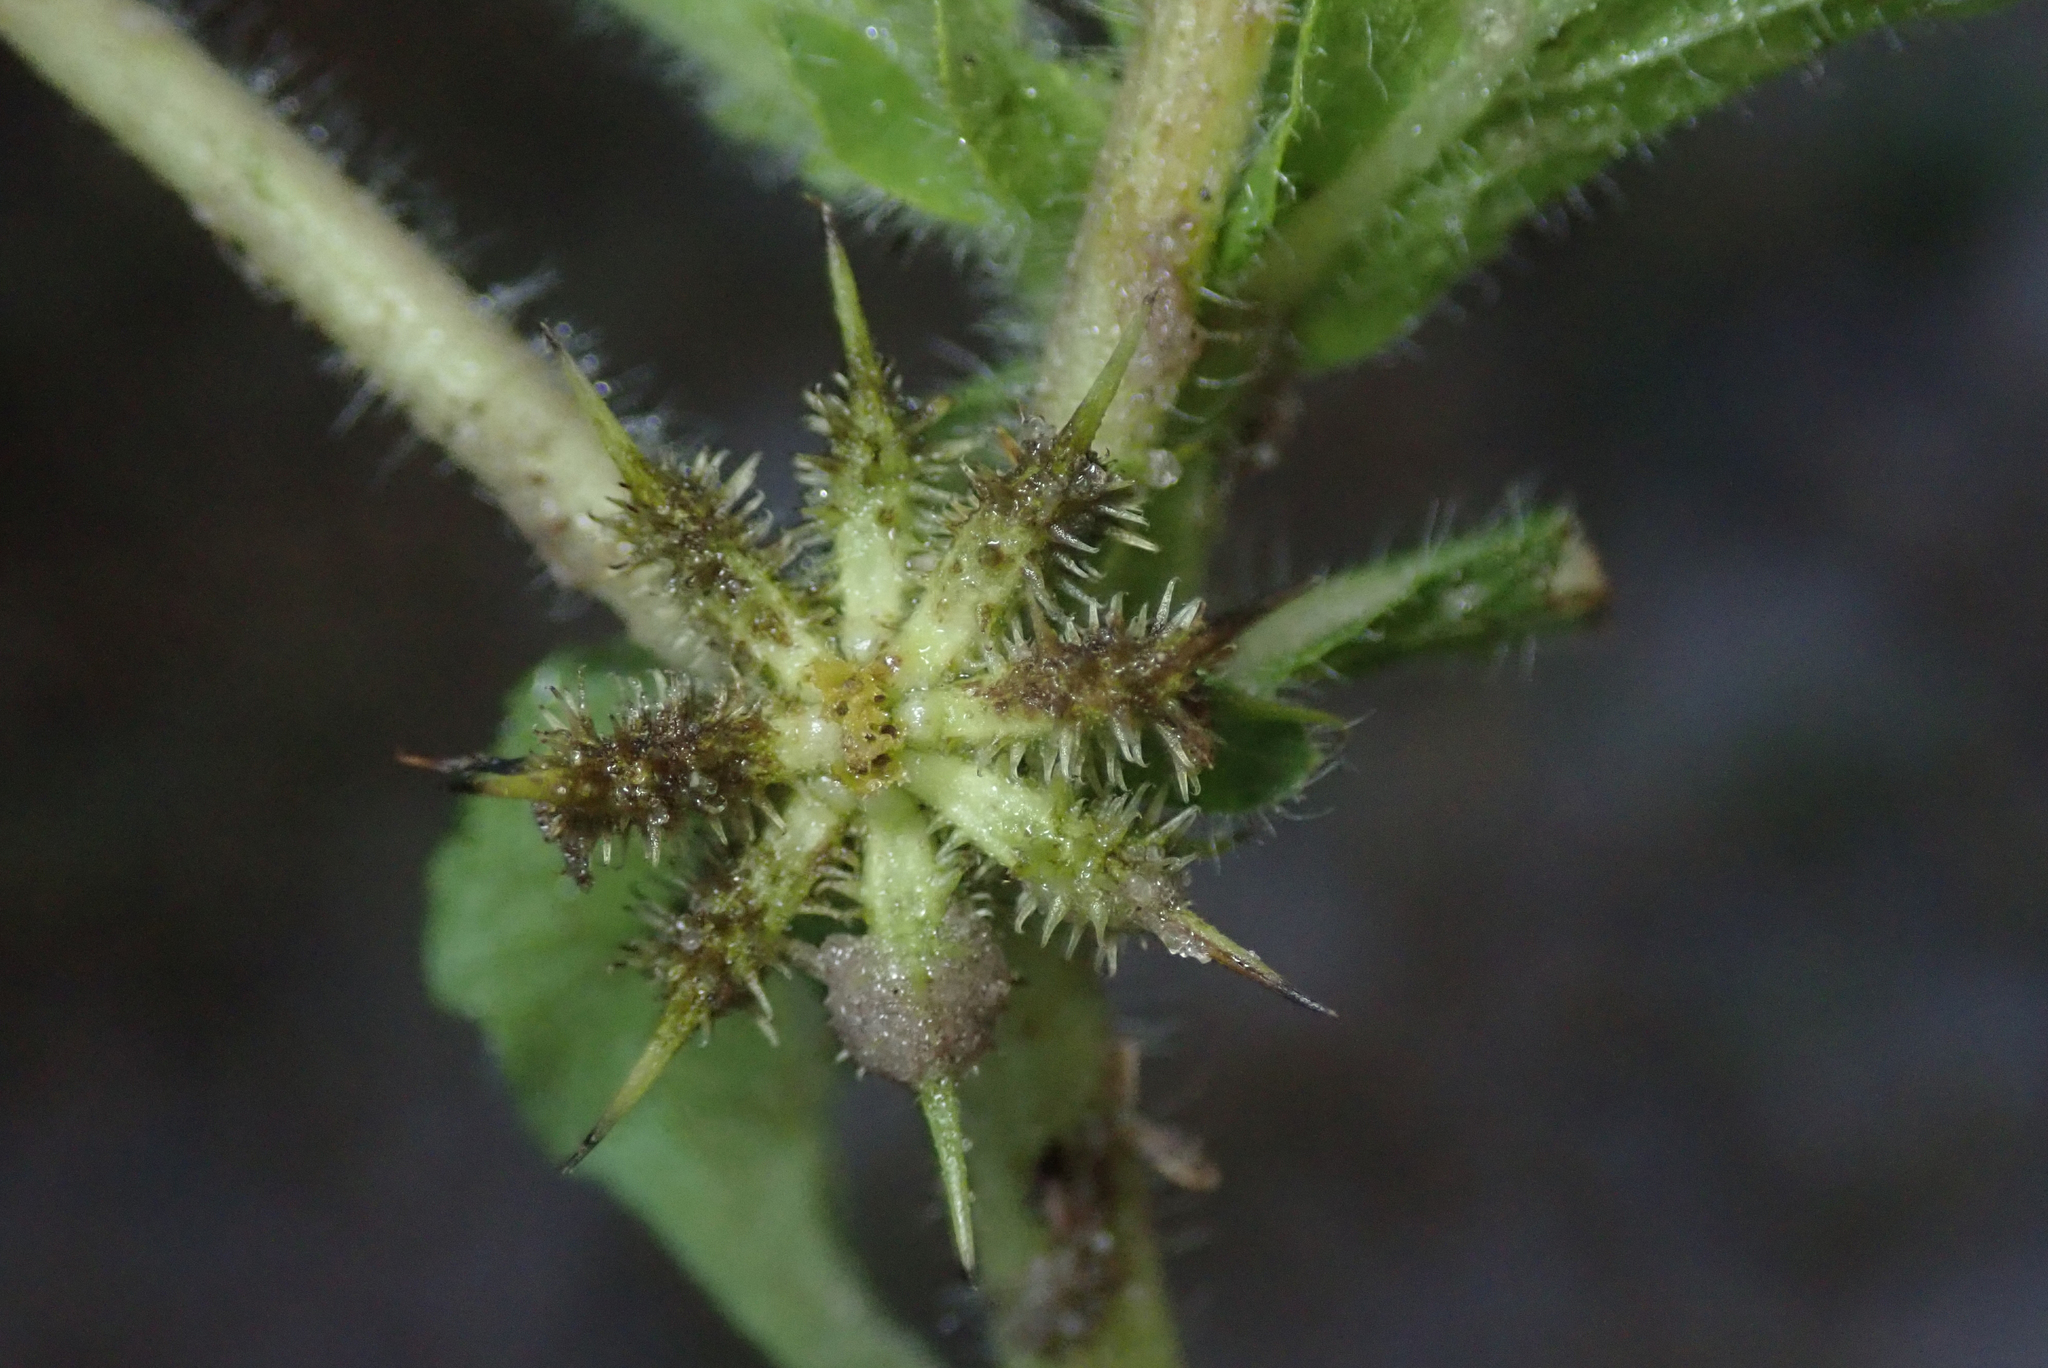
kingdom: Plantae
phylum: Tracheophyta
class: Magnoliopsida
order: Asterales
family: Asteraceae
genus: Acanthospermum
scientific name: Acanthospermum hispidum
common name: Hispid starbur
